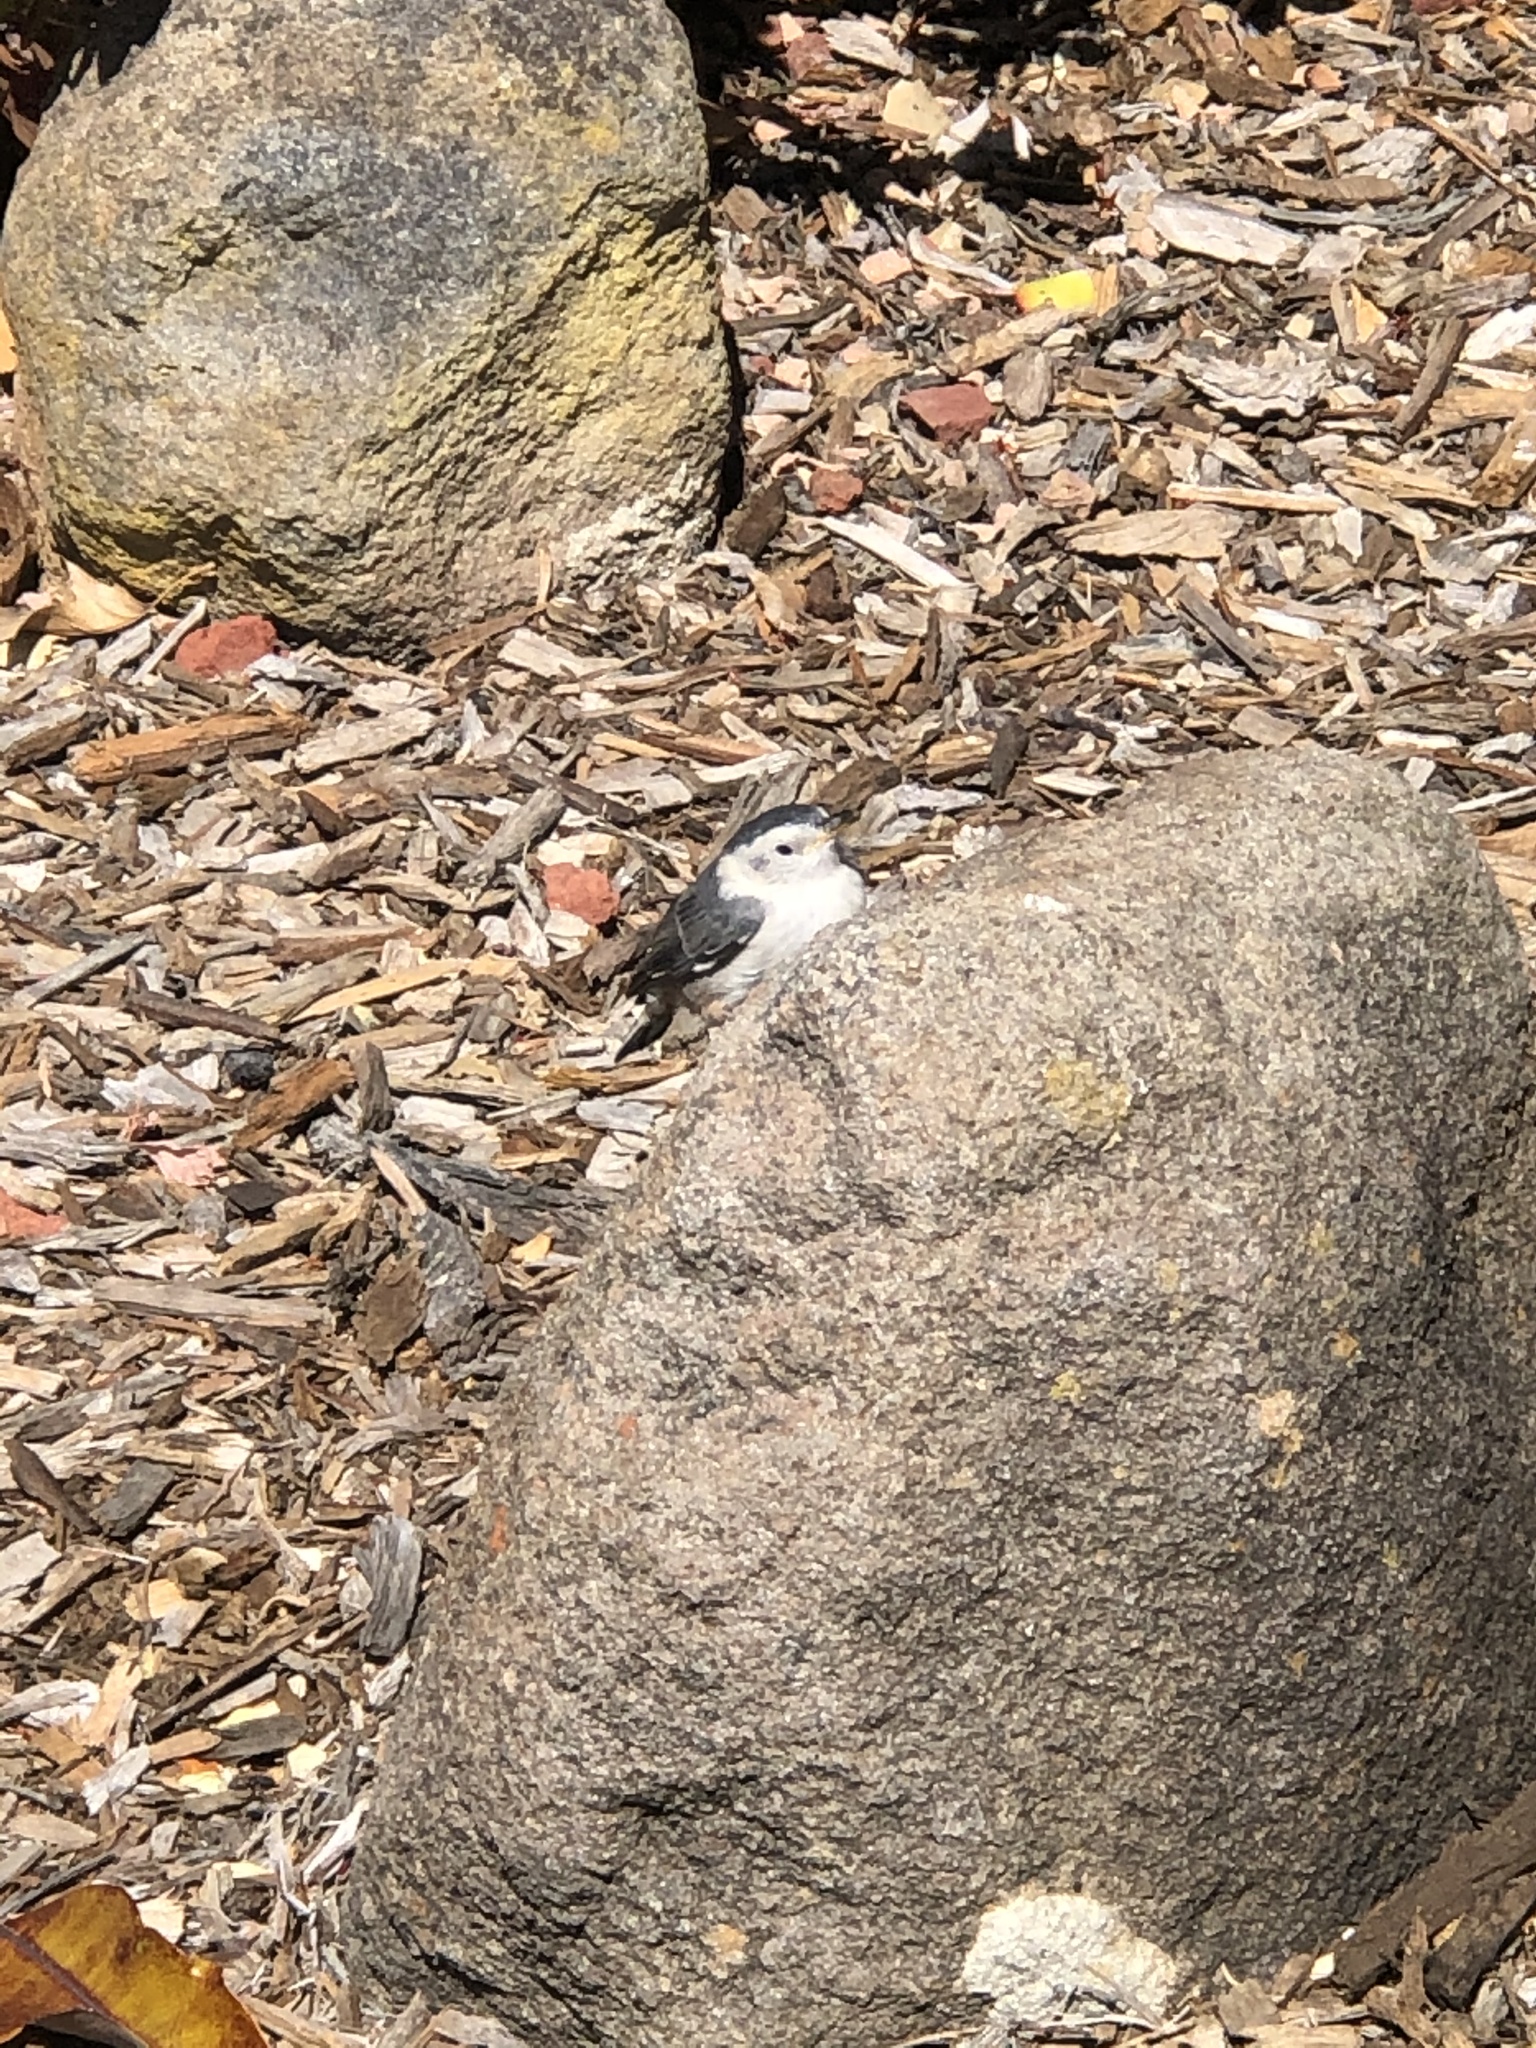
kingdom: Animalia
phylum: Chordata
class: Aves
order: Passeriformes
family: Sittidae
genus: Sitta
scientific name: Sitta carolinensis
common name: White-breasted nuthatch
